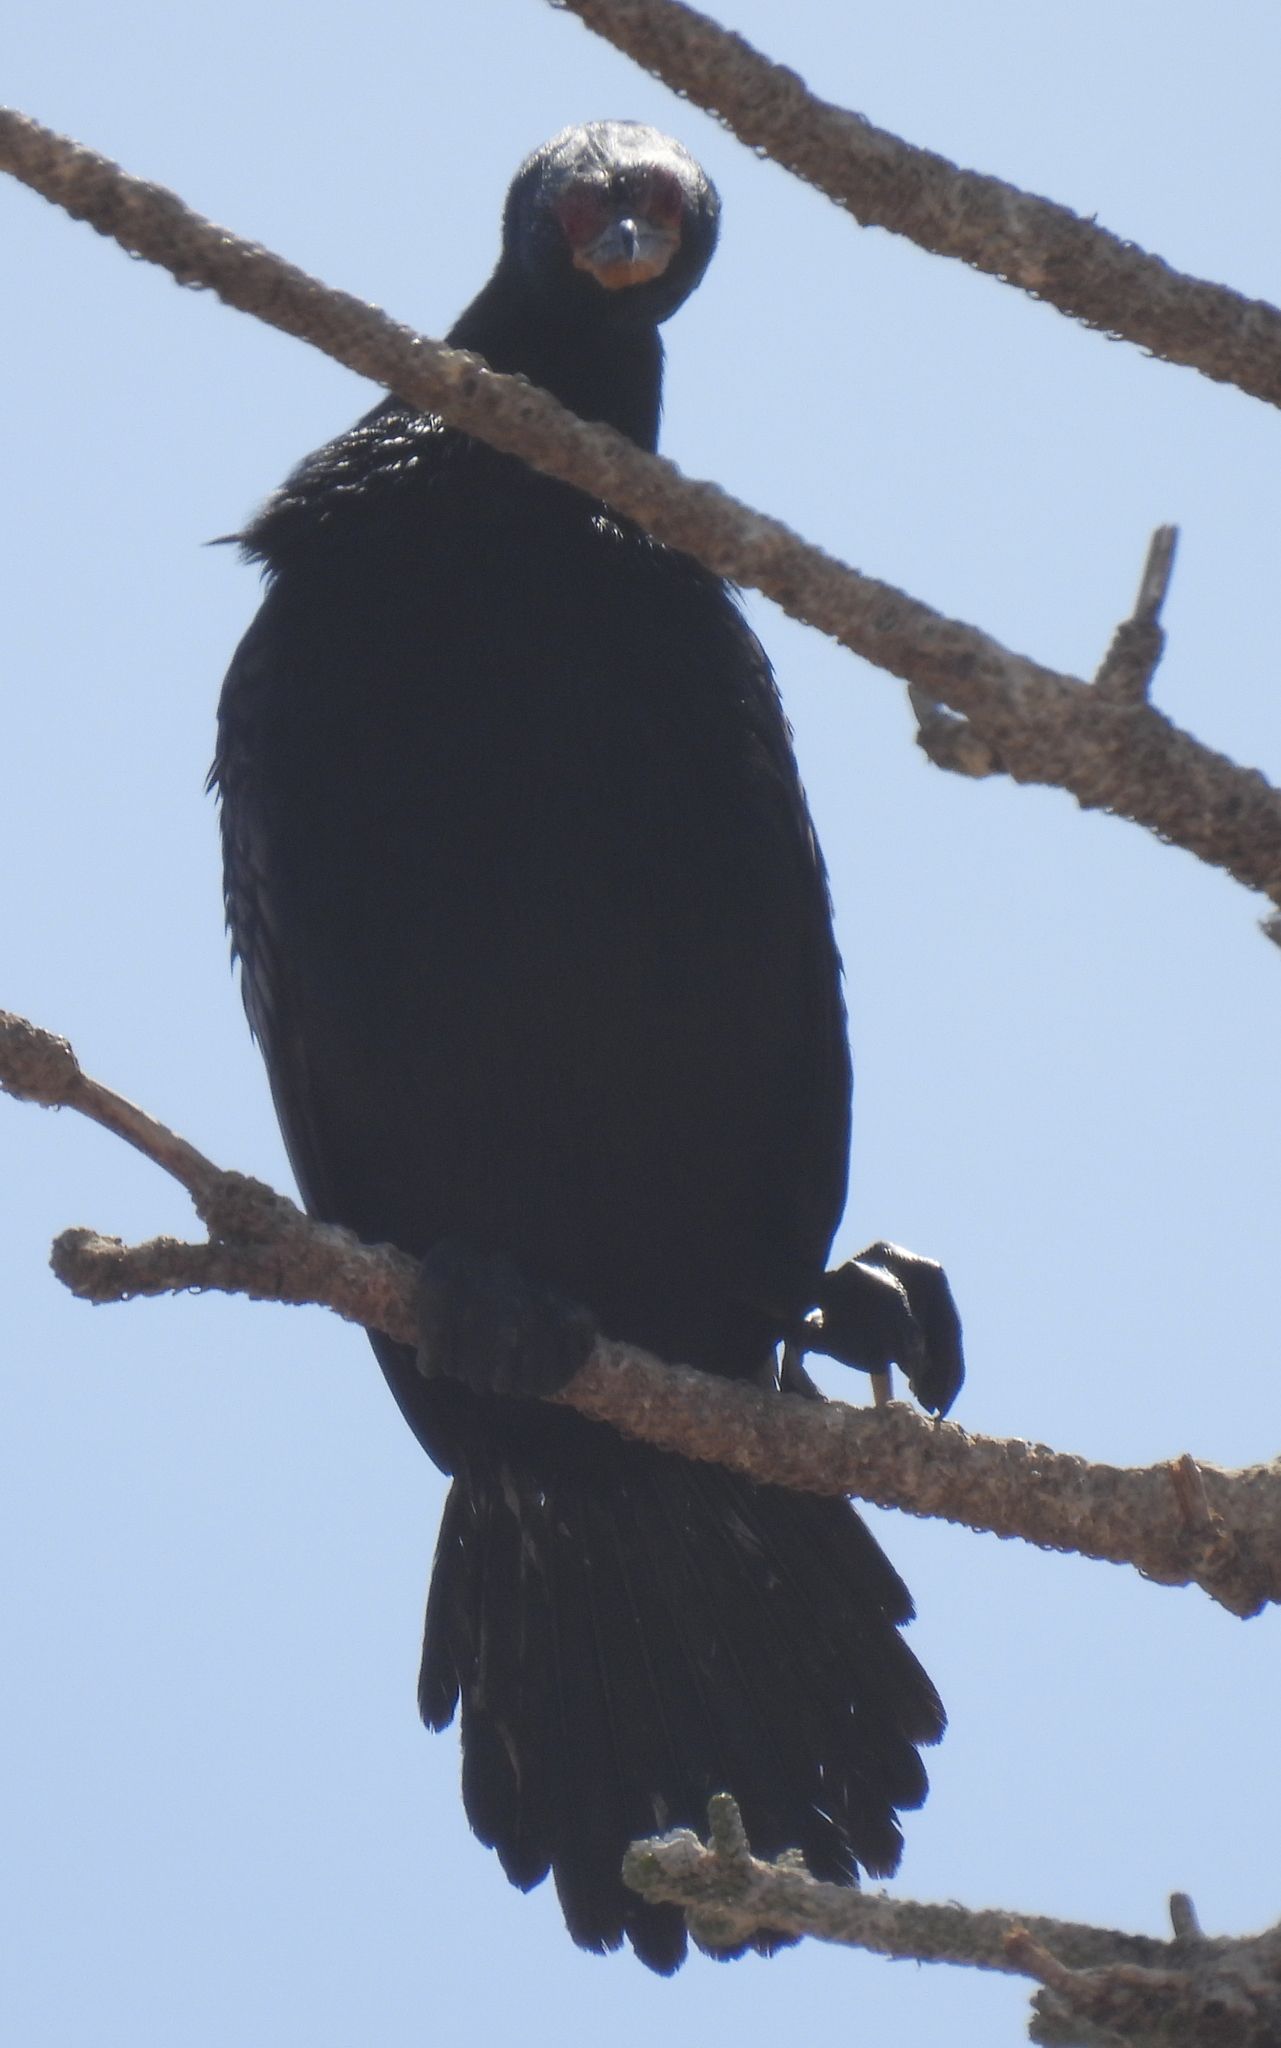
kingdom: Animalia
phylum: Chordata
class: Aves
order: Suliformes
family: Phalacrocoracidae
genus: Microcarbo
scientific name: Microcarbo coronatus
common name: Crowned cormorant
